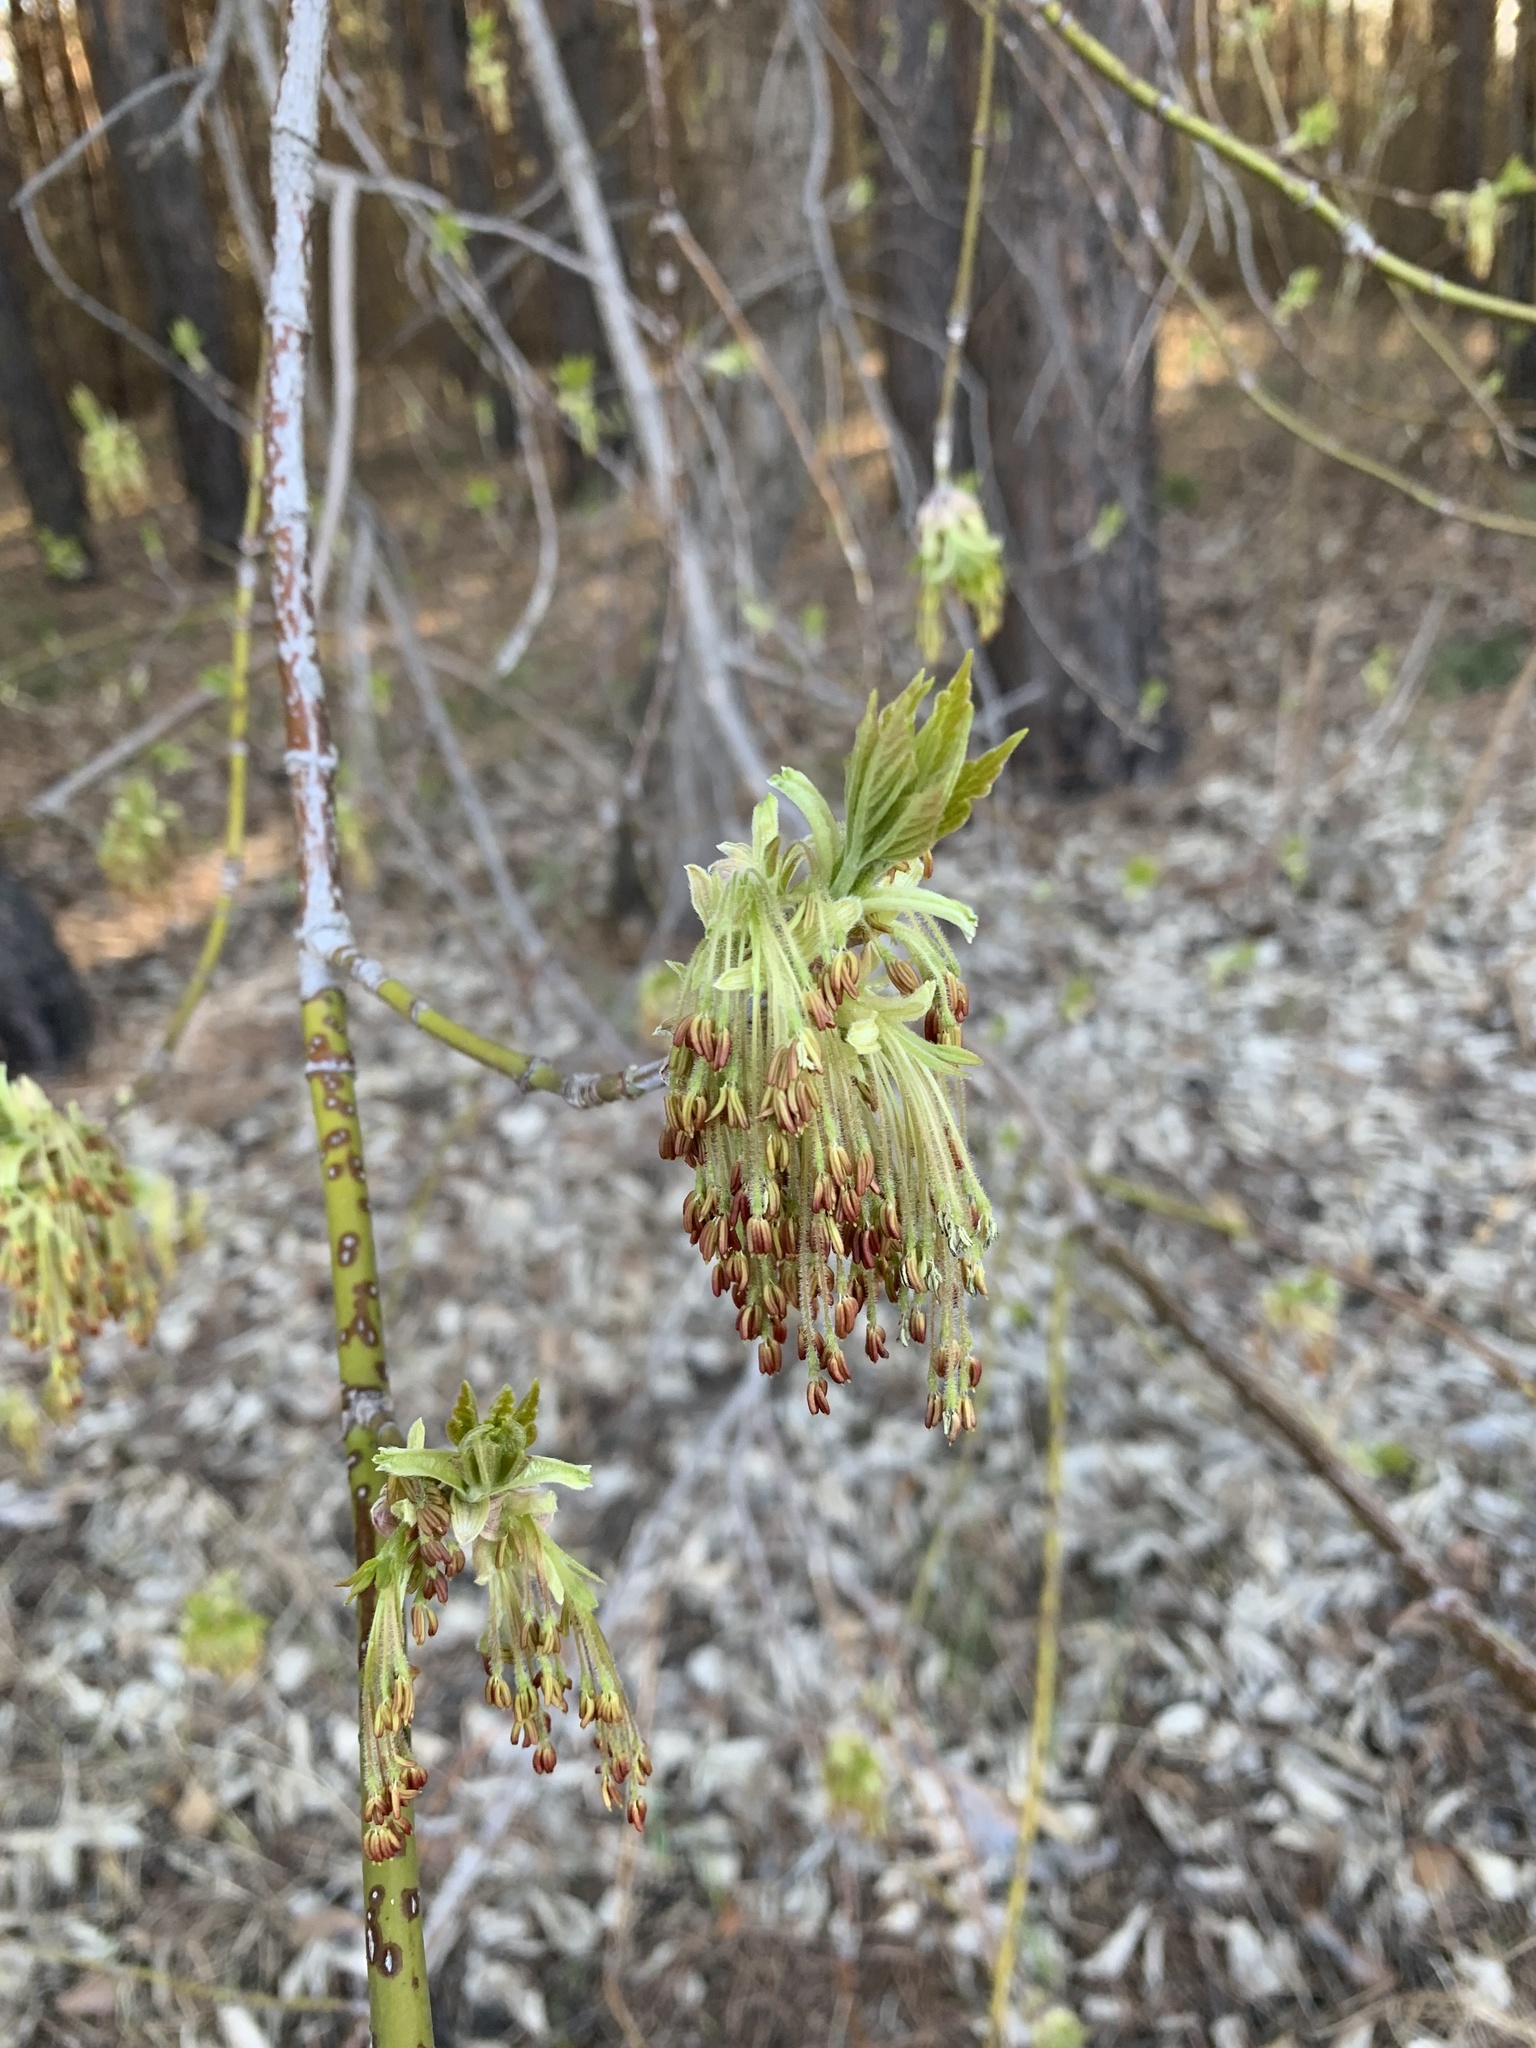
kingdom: Plantae
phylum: Tracheophyta
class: Magnoliopsida
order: Sapindales
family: Sapindaceae
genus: Acer
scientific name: Acer negundo
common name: Ashleaf maple
